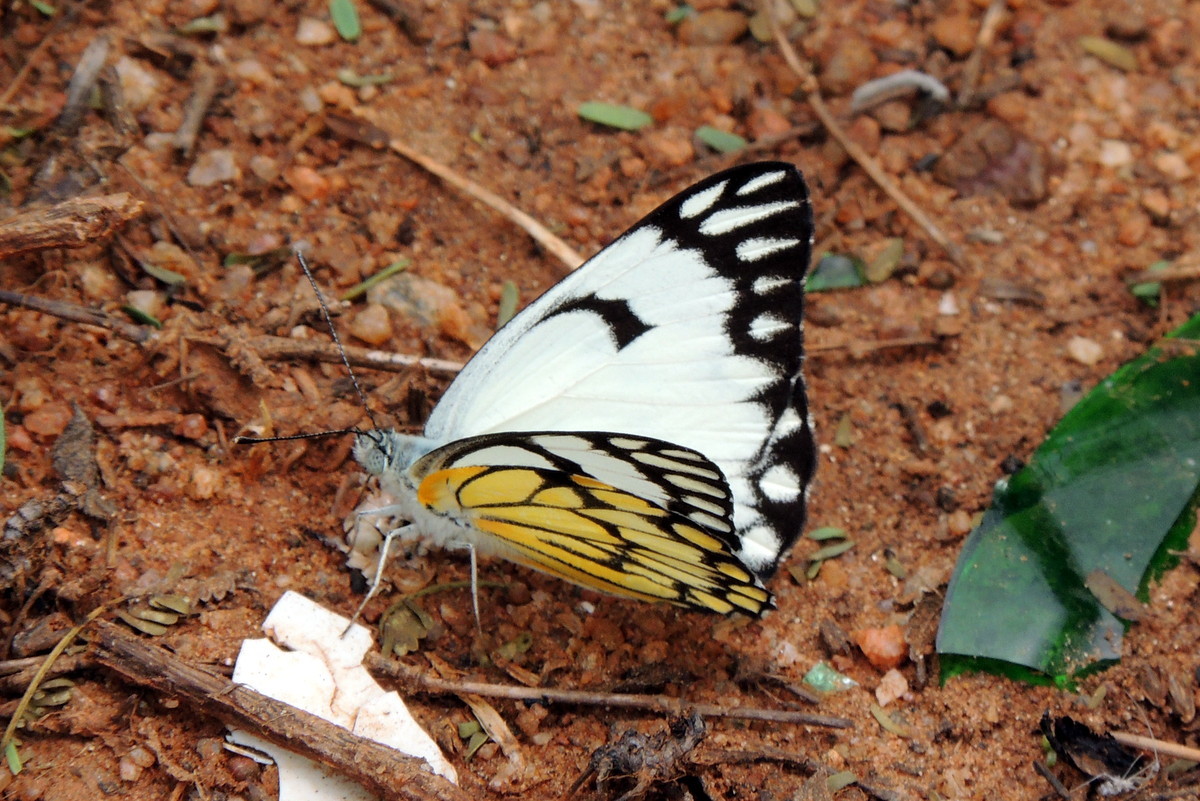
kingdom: Animalia
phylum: Arthropoda
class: Insecta
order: Lepidoptera
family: Pieridae
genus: Belenois
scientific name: Belenois aurota
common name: Brown-veined white
